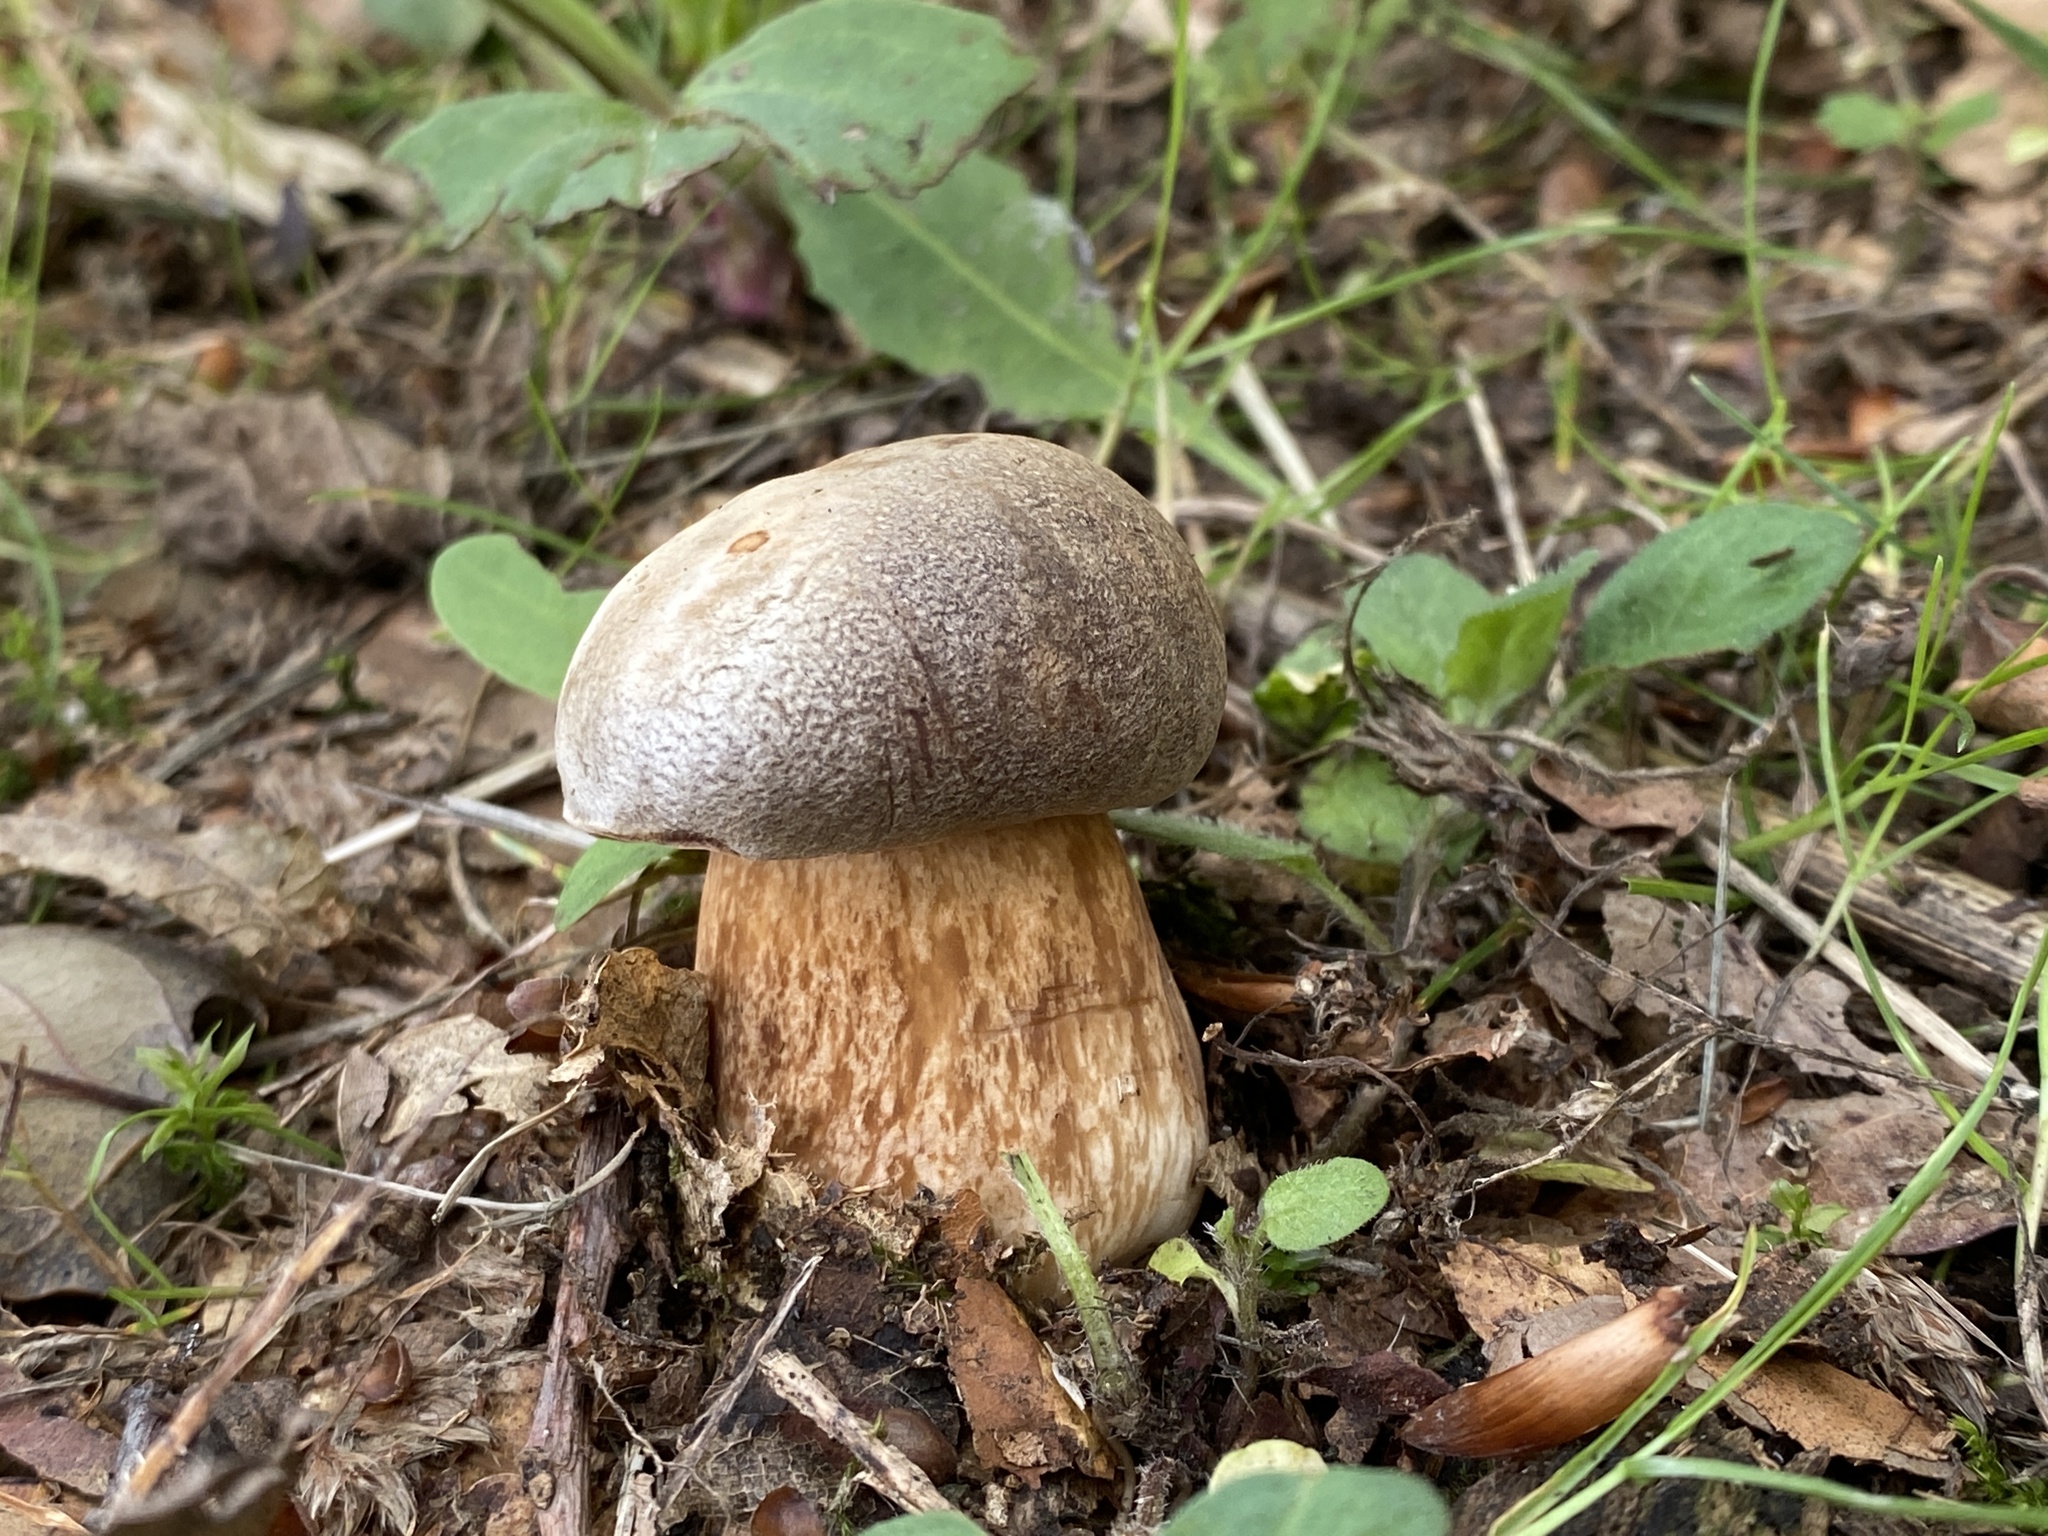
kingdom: Fungi
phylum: Basidiomycota
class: Agaricomycetes
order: Boletales
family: Boletaceae
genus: Boletus
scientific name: Boletus aereus
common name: Bronze bolete
